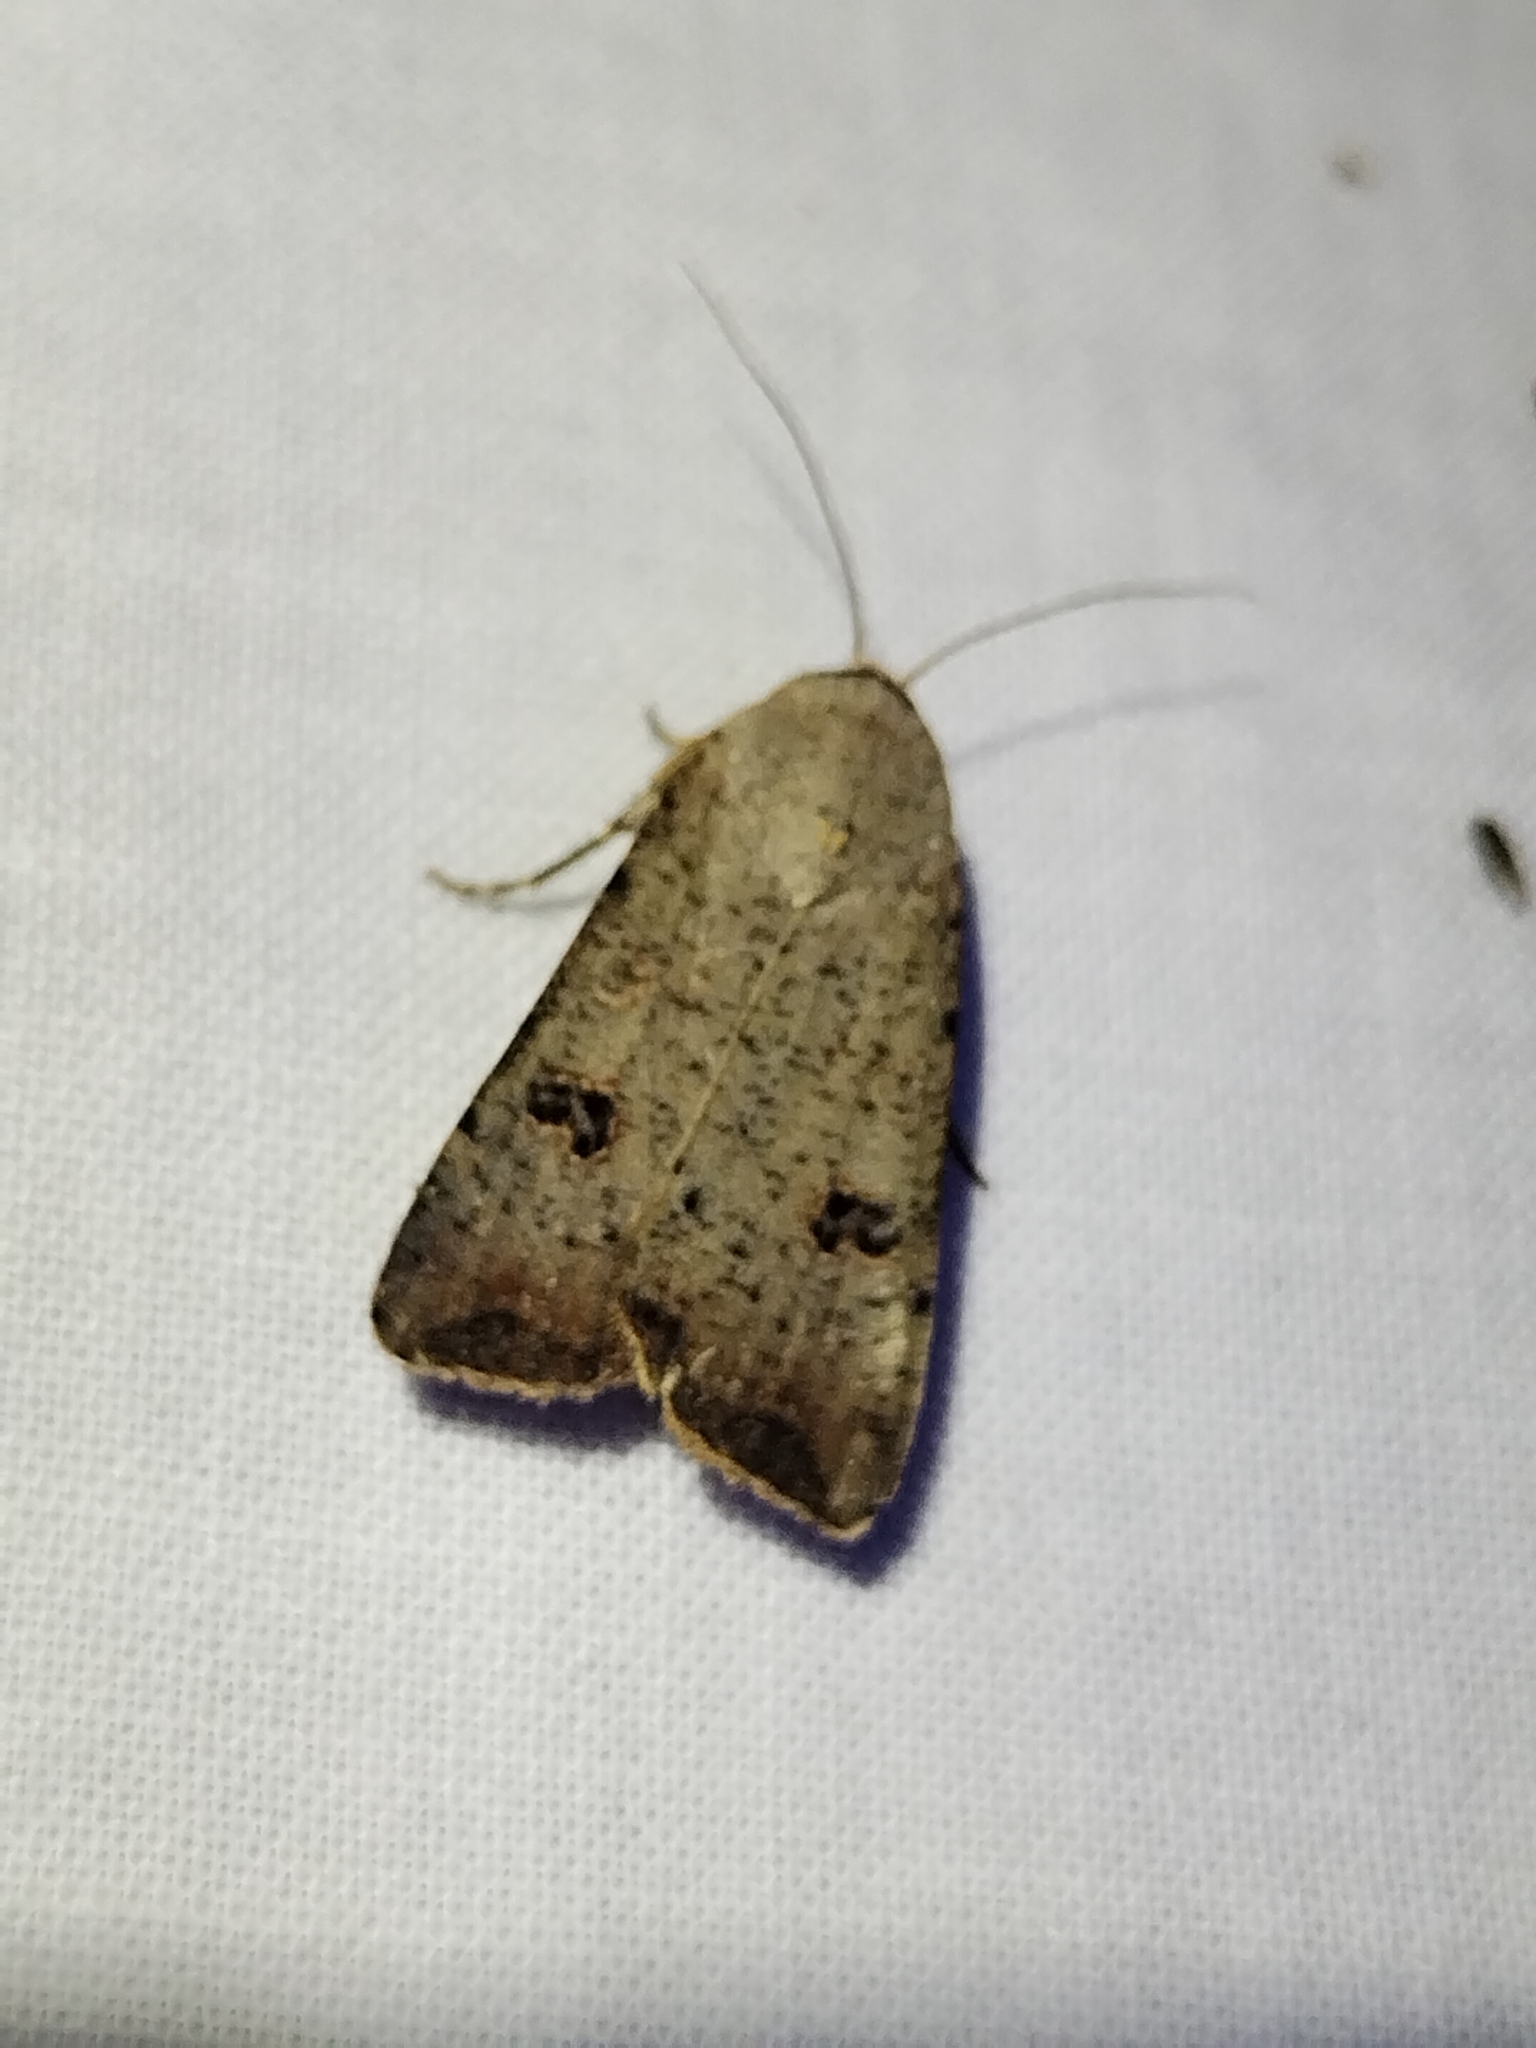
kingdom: Animalia
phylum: Arthropoda
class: Insecta
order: Lepidoptera
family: Noctuidae
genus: Anicla
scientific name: Anicla infecta
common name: Green cutworm
